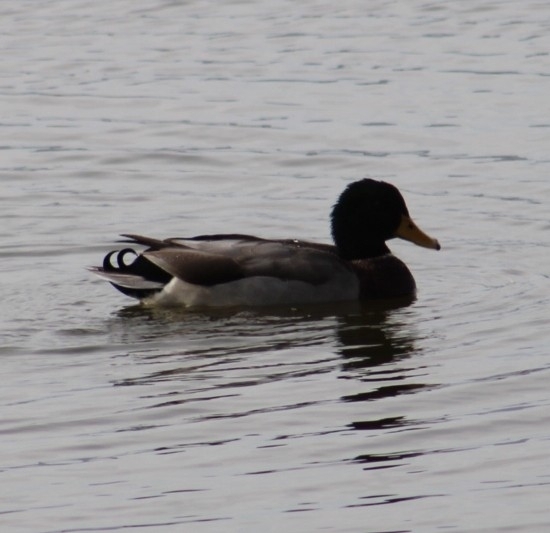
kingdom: Animalia
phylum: Chordata
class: Aves
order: Anseriformes
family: Anatidae
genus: Anas
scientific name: Anas platyrhynchos
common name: Mallard
